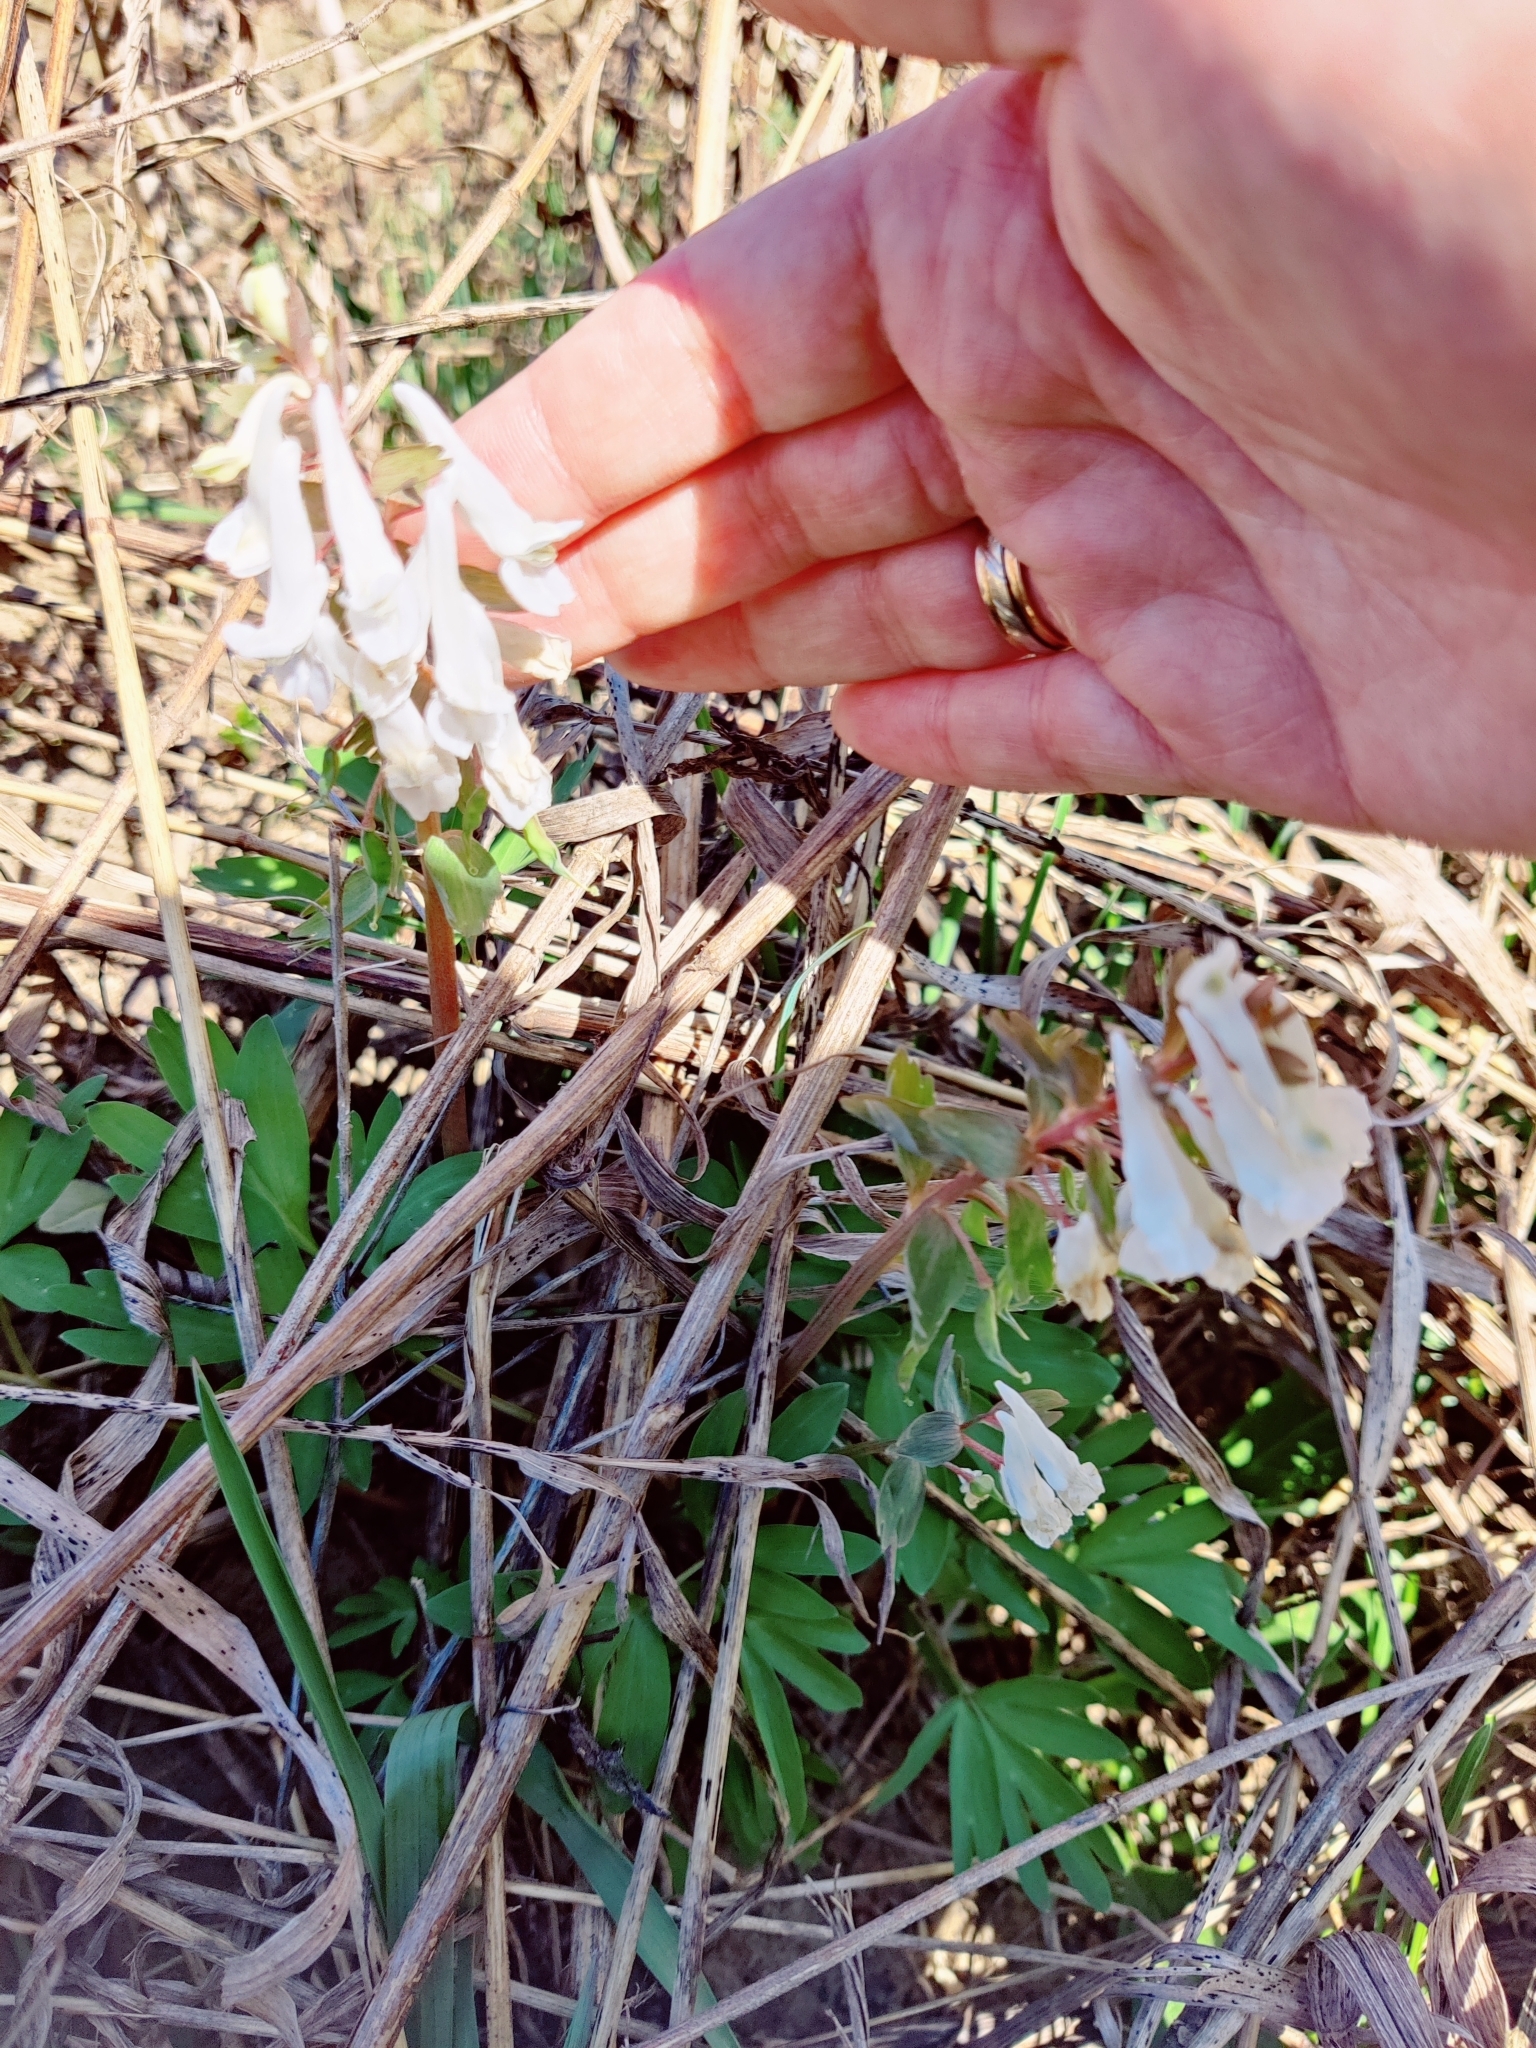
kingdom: Plantae
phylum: Tracheophyta
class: Magnoliopsida
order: Ranunculales
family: Papaveraceae
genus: Corydalis
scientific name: Corydalis solida
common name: Bird-in-a-bush
